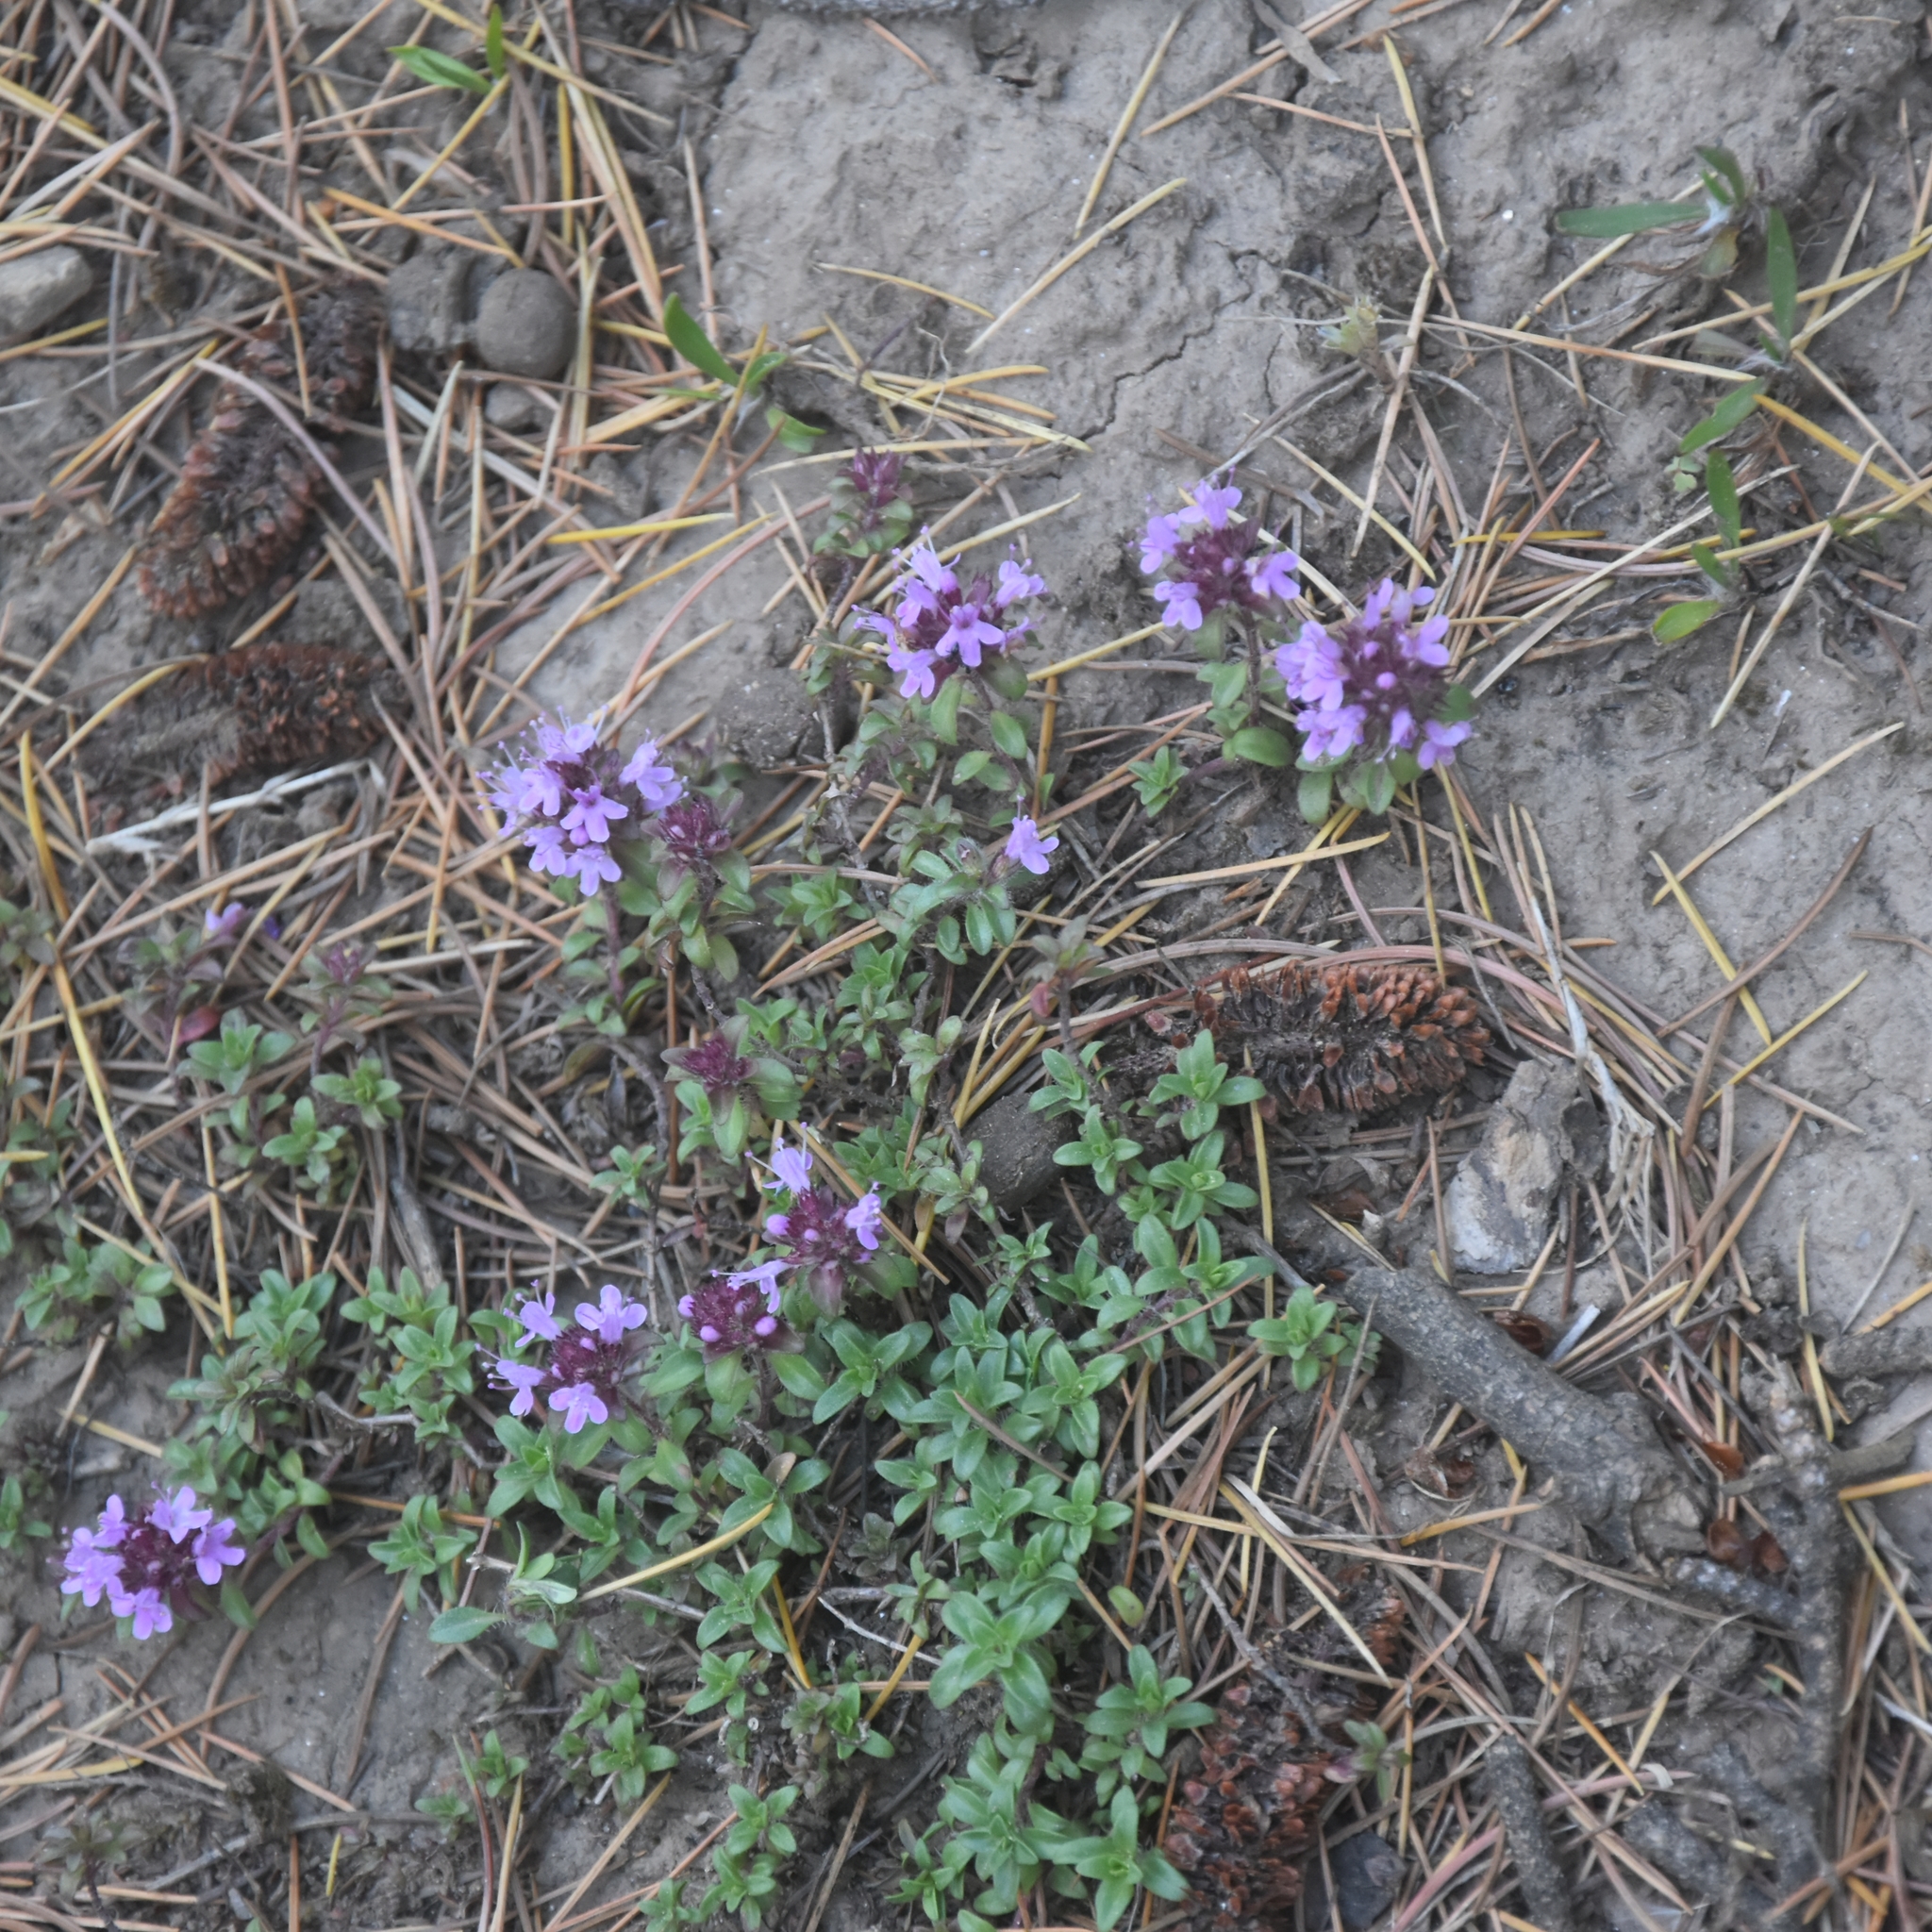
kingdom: Plantae
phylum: Tracheophyta
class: Magnoliopsida
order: Lamiales
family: Lamiaceae
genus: Thymus
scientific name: Thymus linearis
